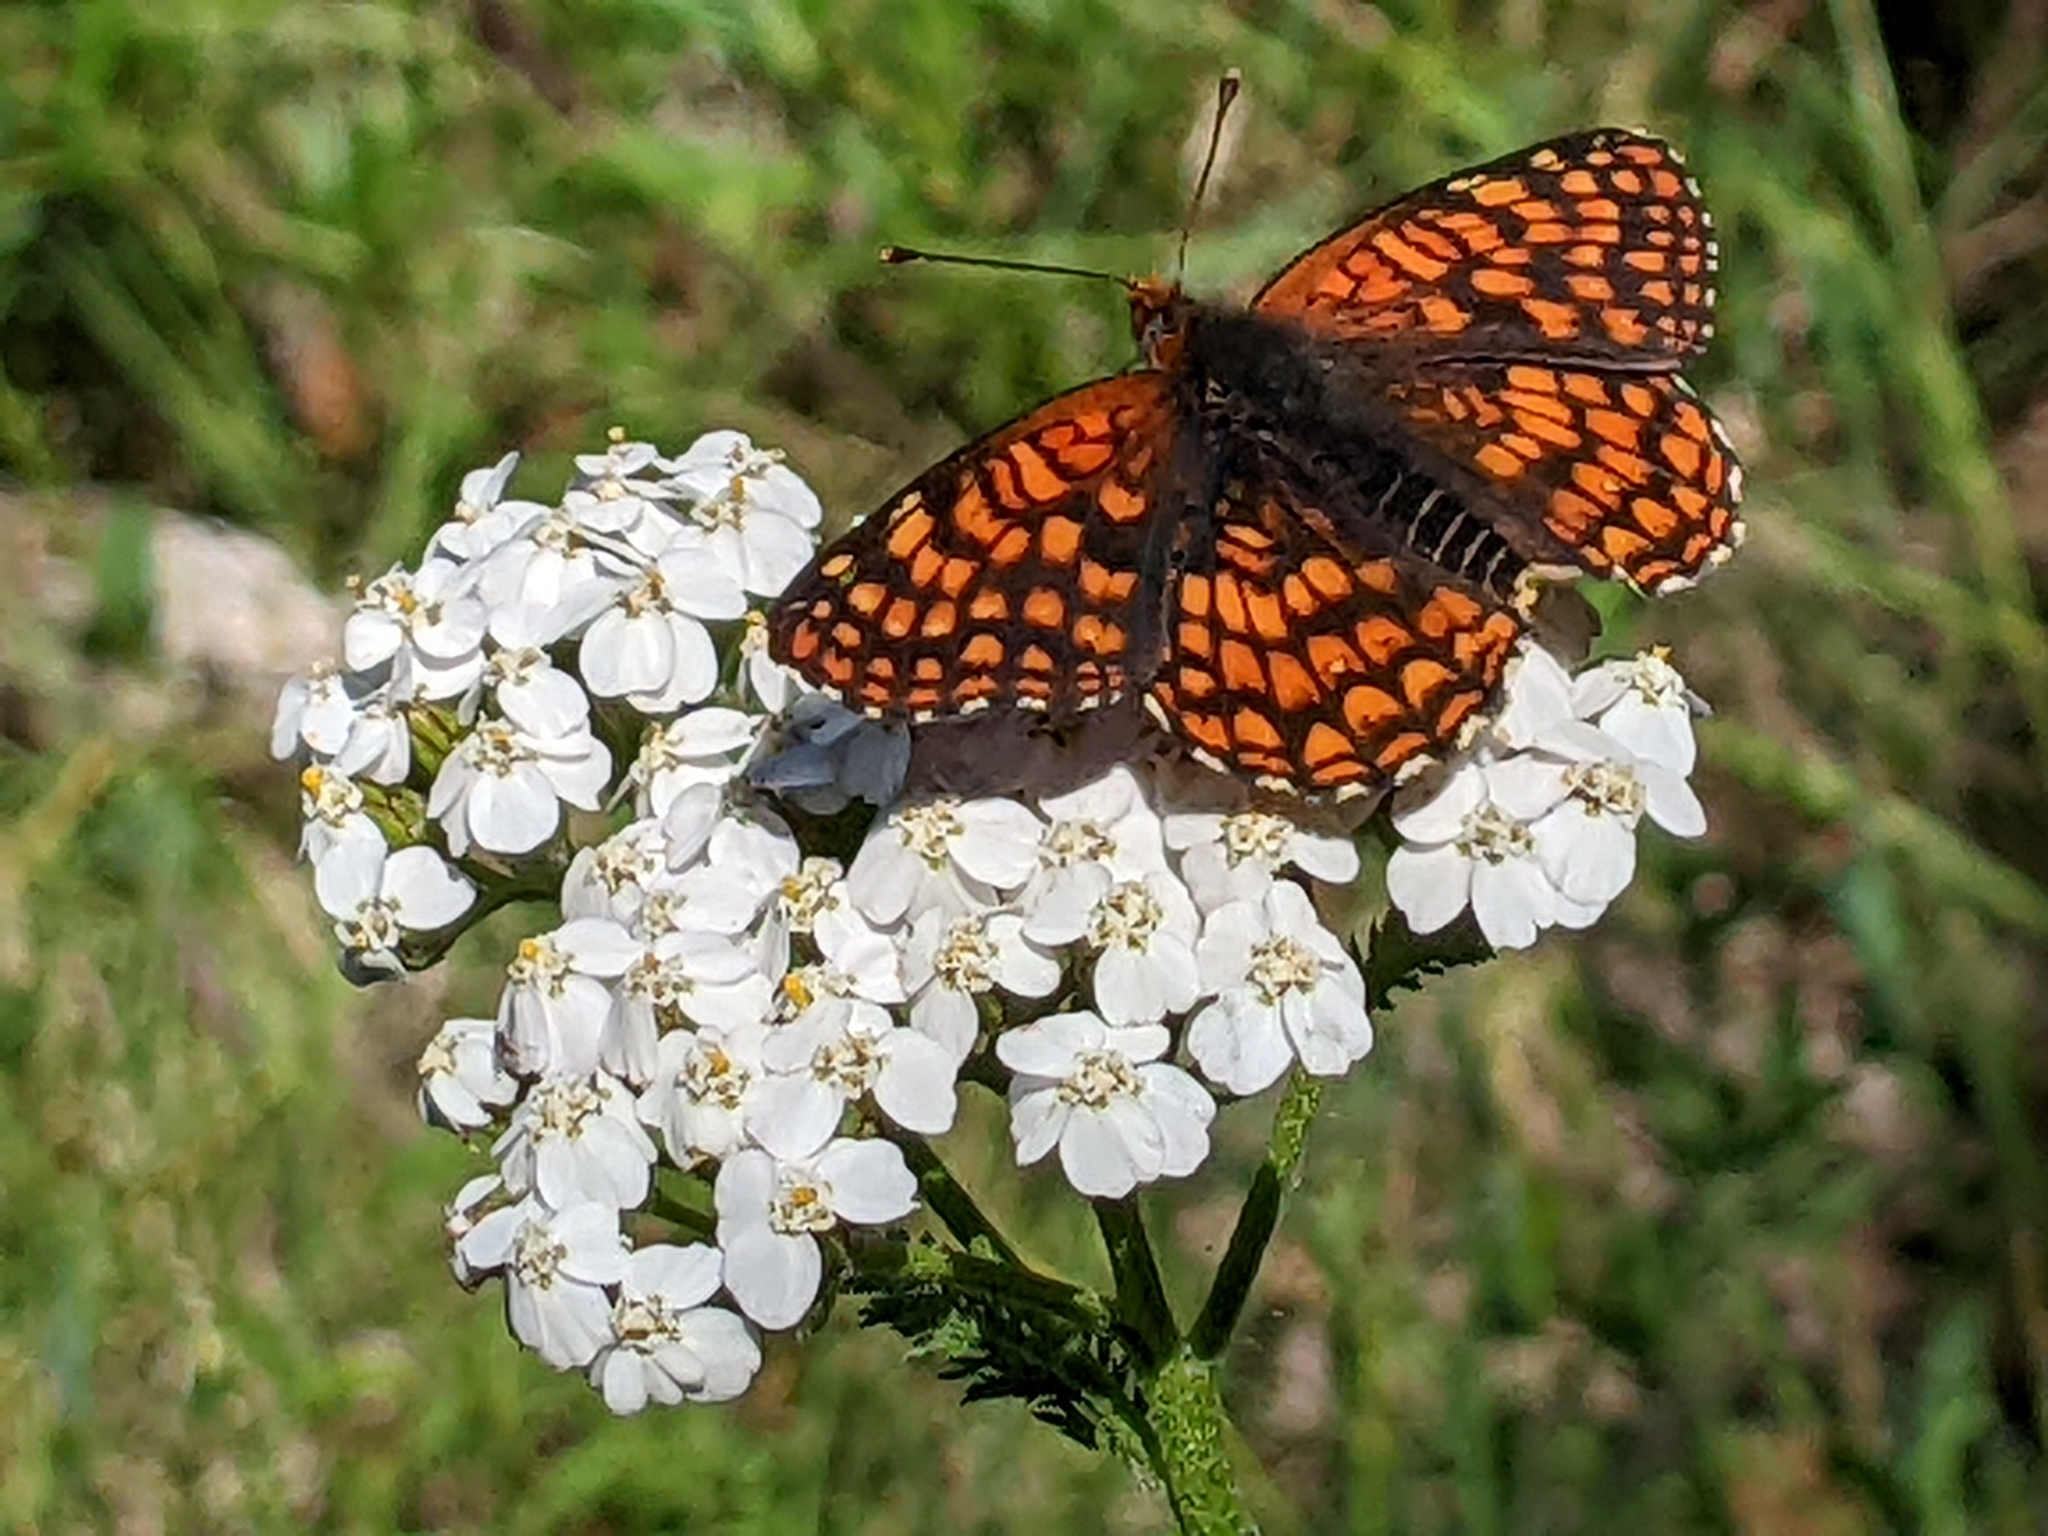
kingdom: Animalia
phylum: Arthropoda
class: Insecta
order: Lepidoptera
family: Nymphalidae
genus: Chlosyne
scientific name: Chlosyne palla
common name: Northern checkerspot
